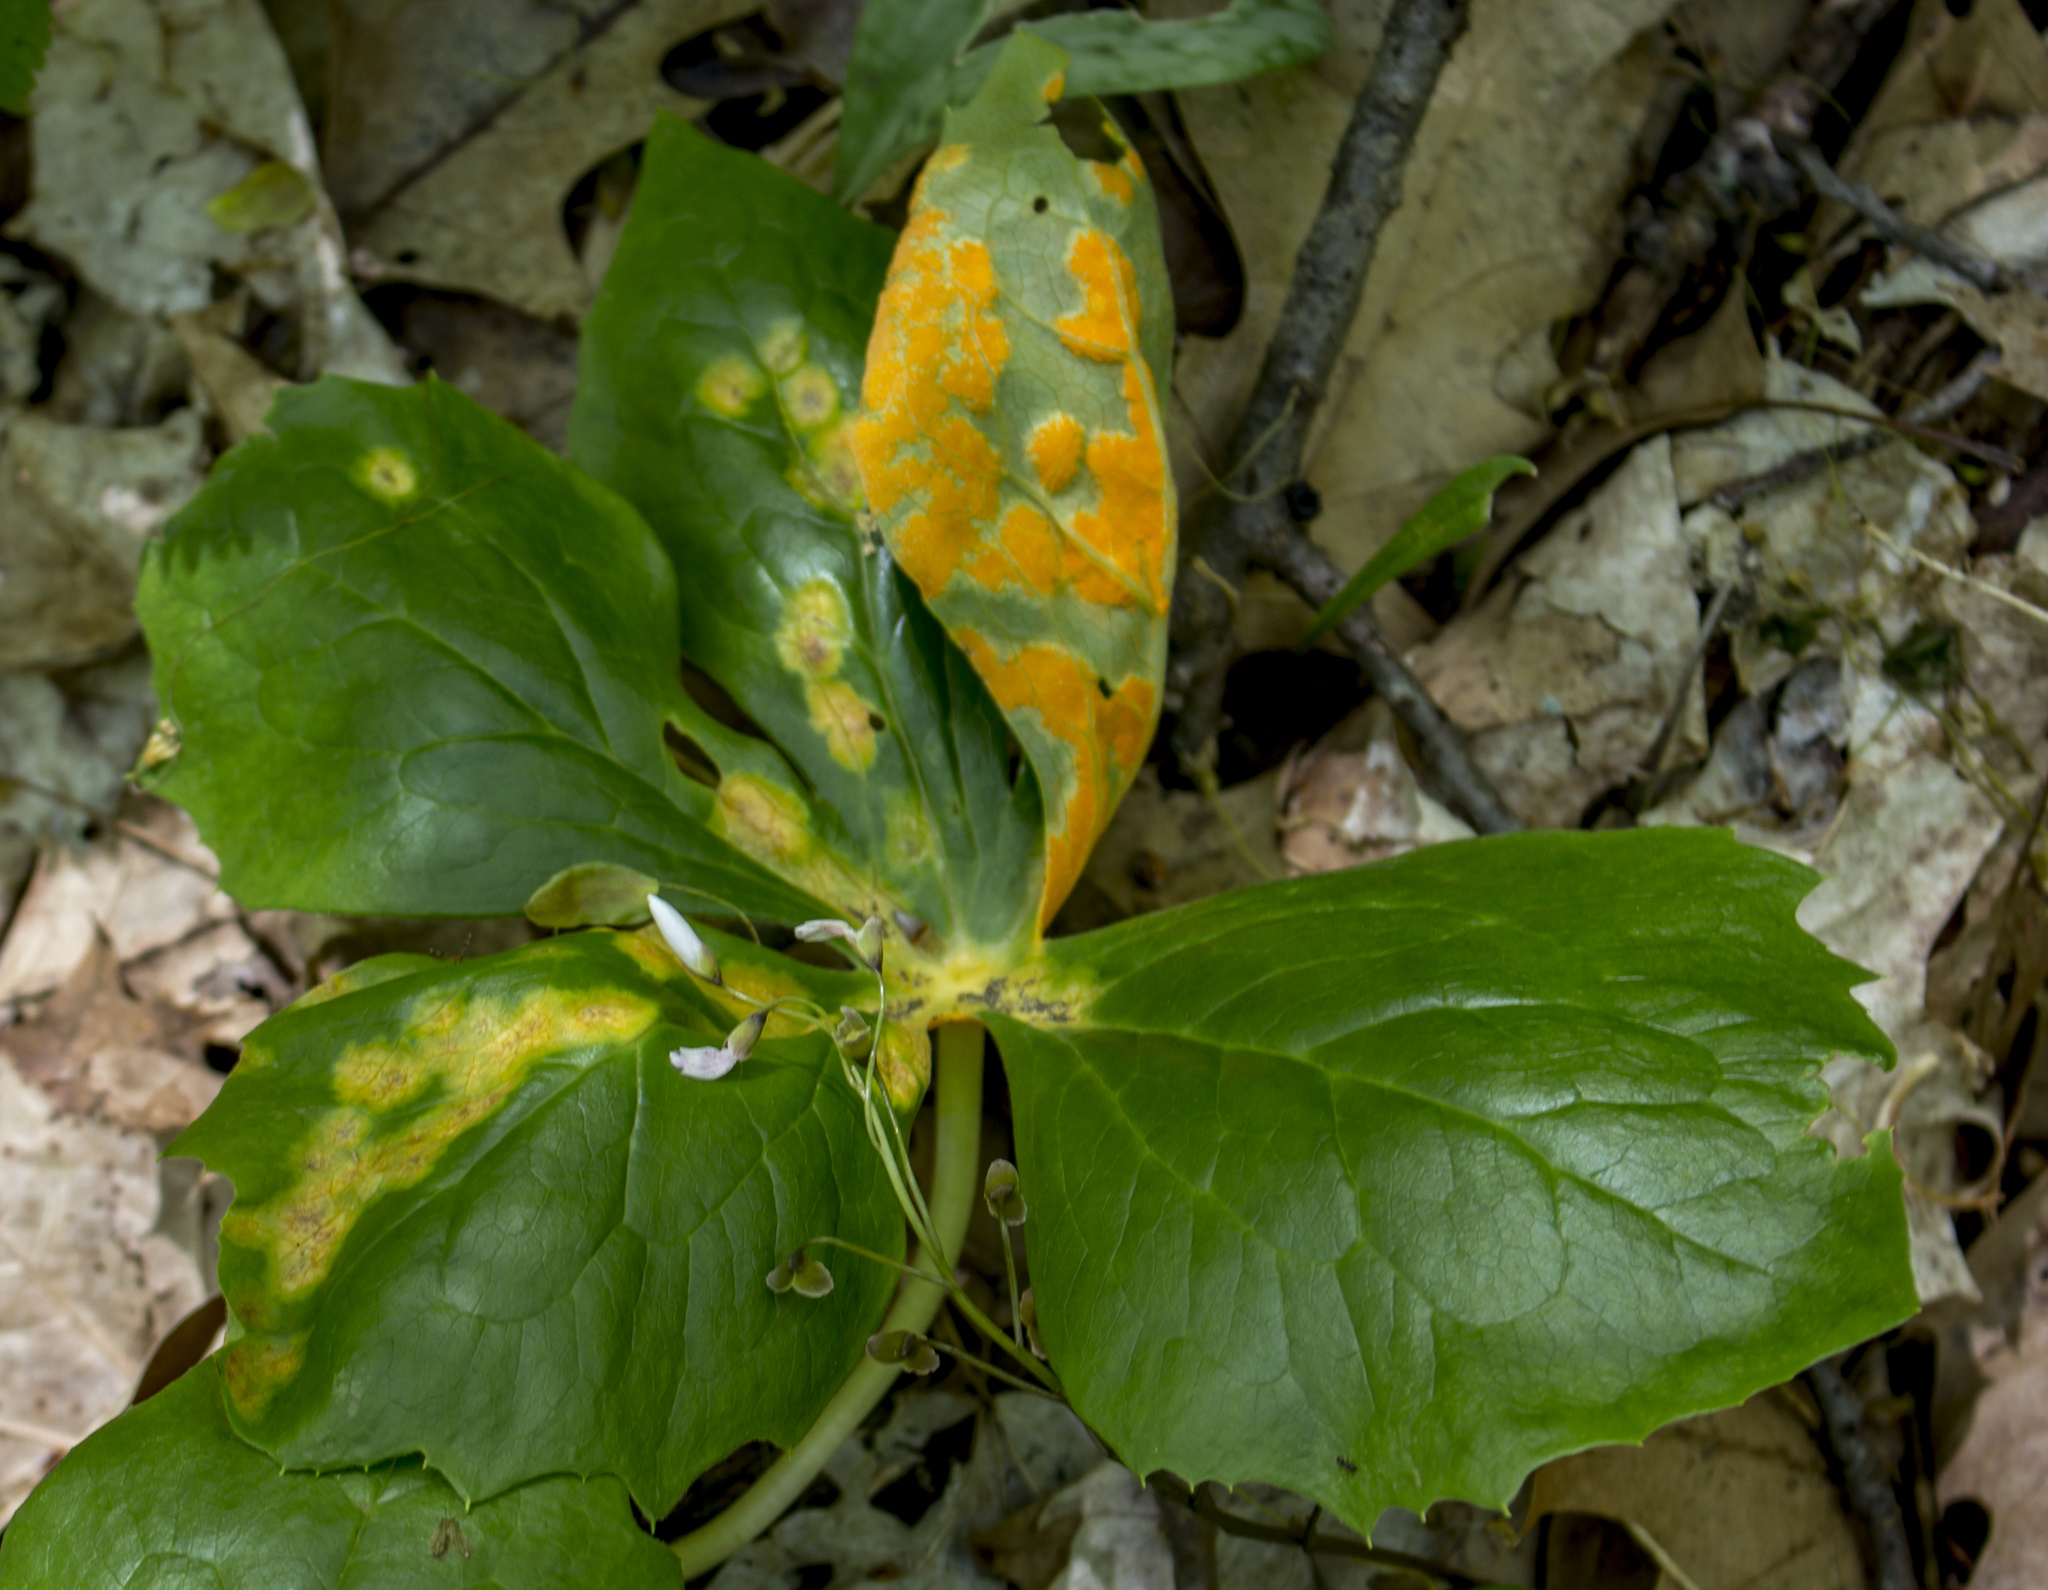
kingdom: Fungi
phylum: Basidiomycota
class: Pucciniomycetes
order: Pucciniales
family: Pucciniaceae
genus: Puccinia
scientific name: Puccinia podophylli
